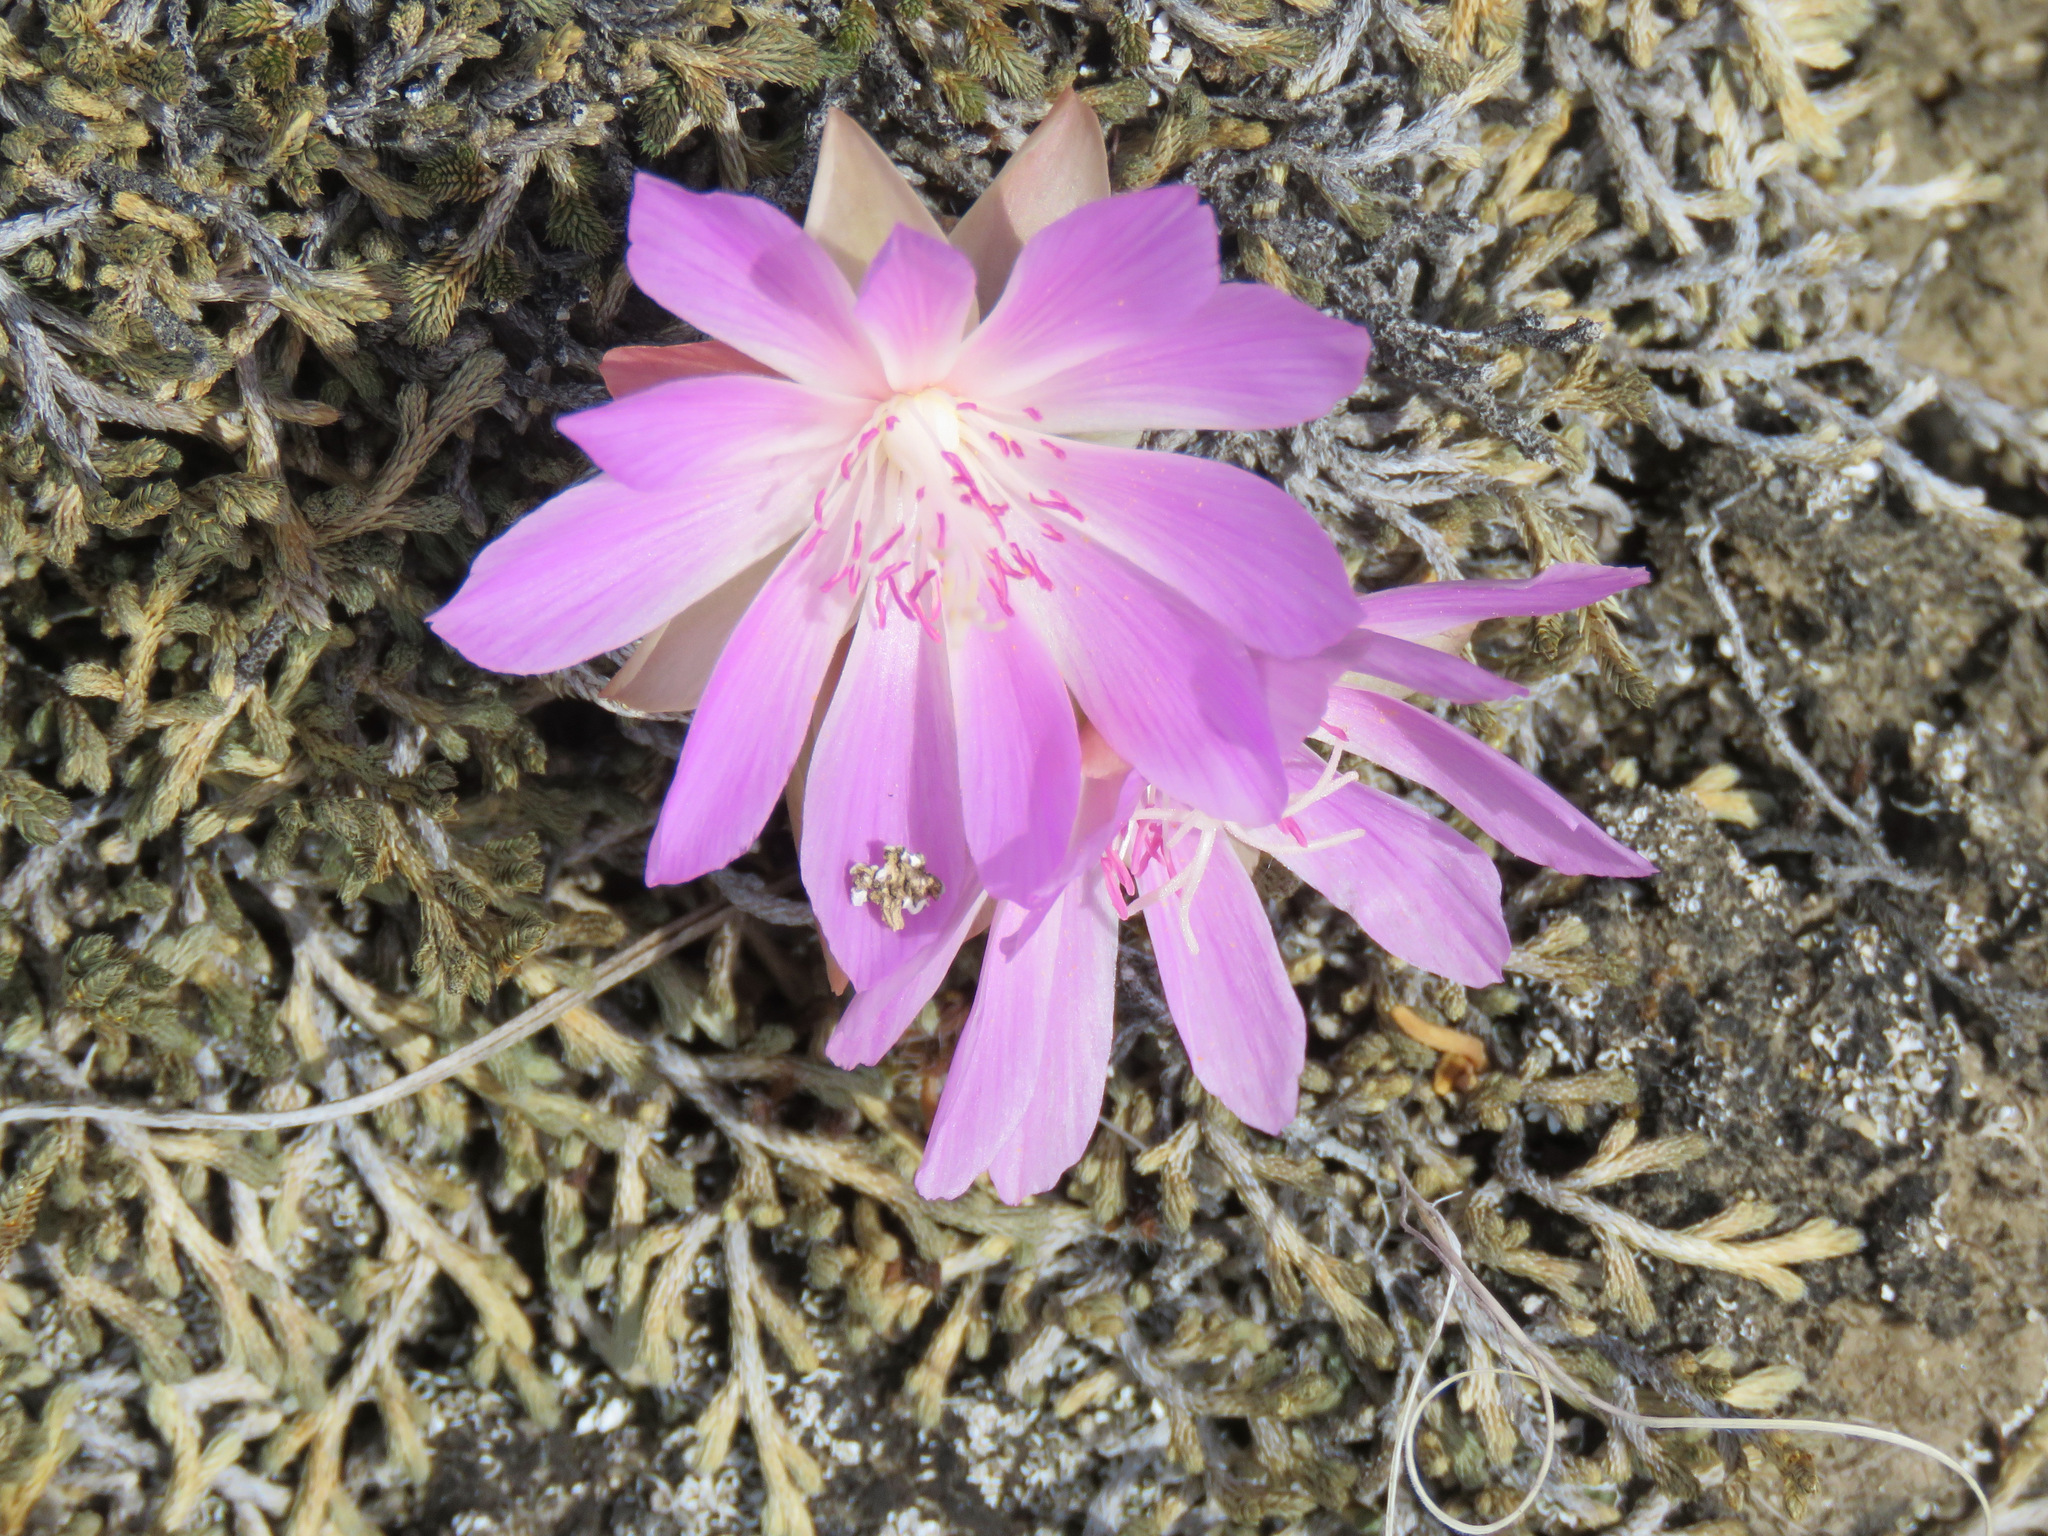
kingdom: Plantae
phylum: Tracheophyta
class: Magnoliopsida
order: Caryophyllales
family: Montiaceae
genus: Lewisia
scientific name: Lewisia rediviva
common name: Bitter-root
